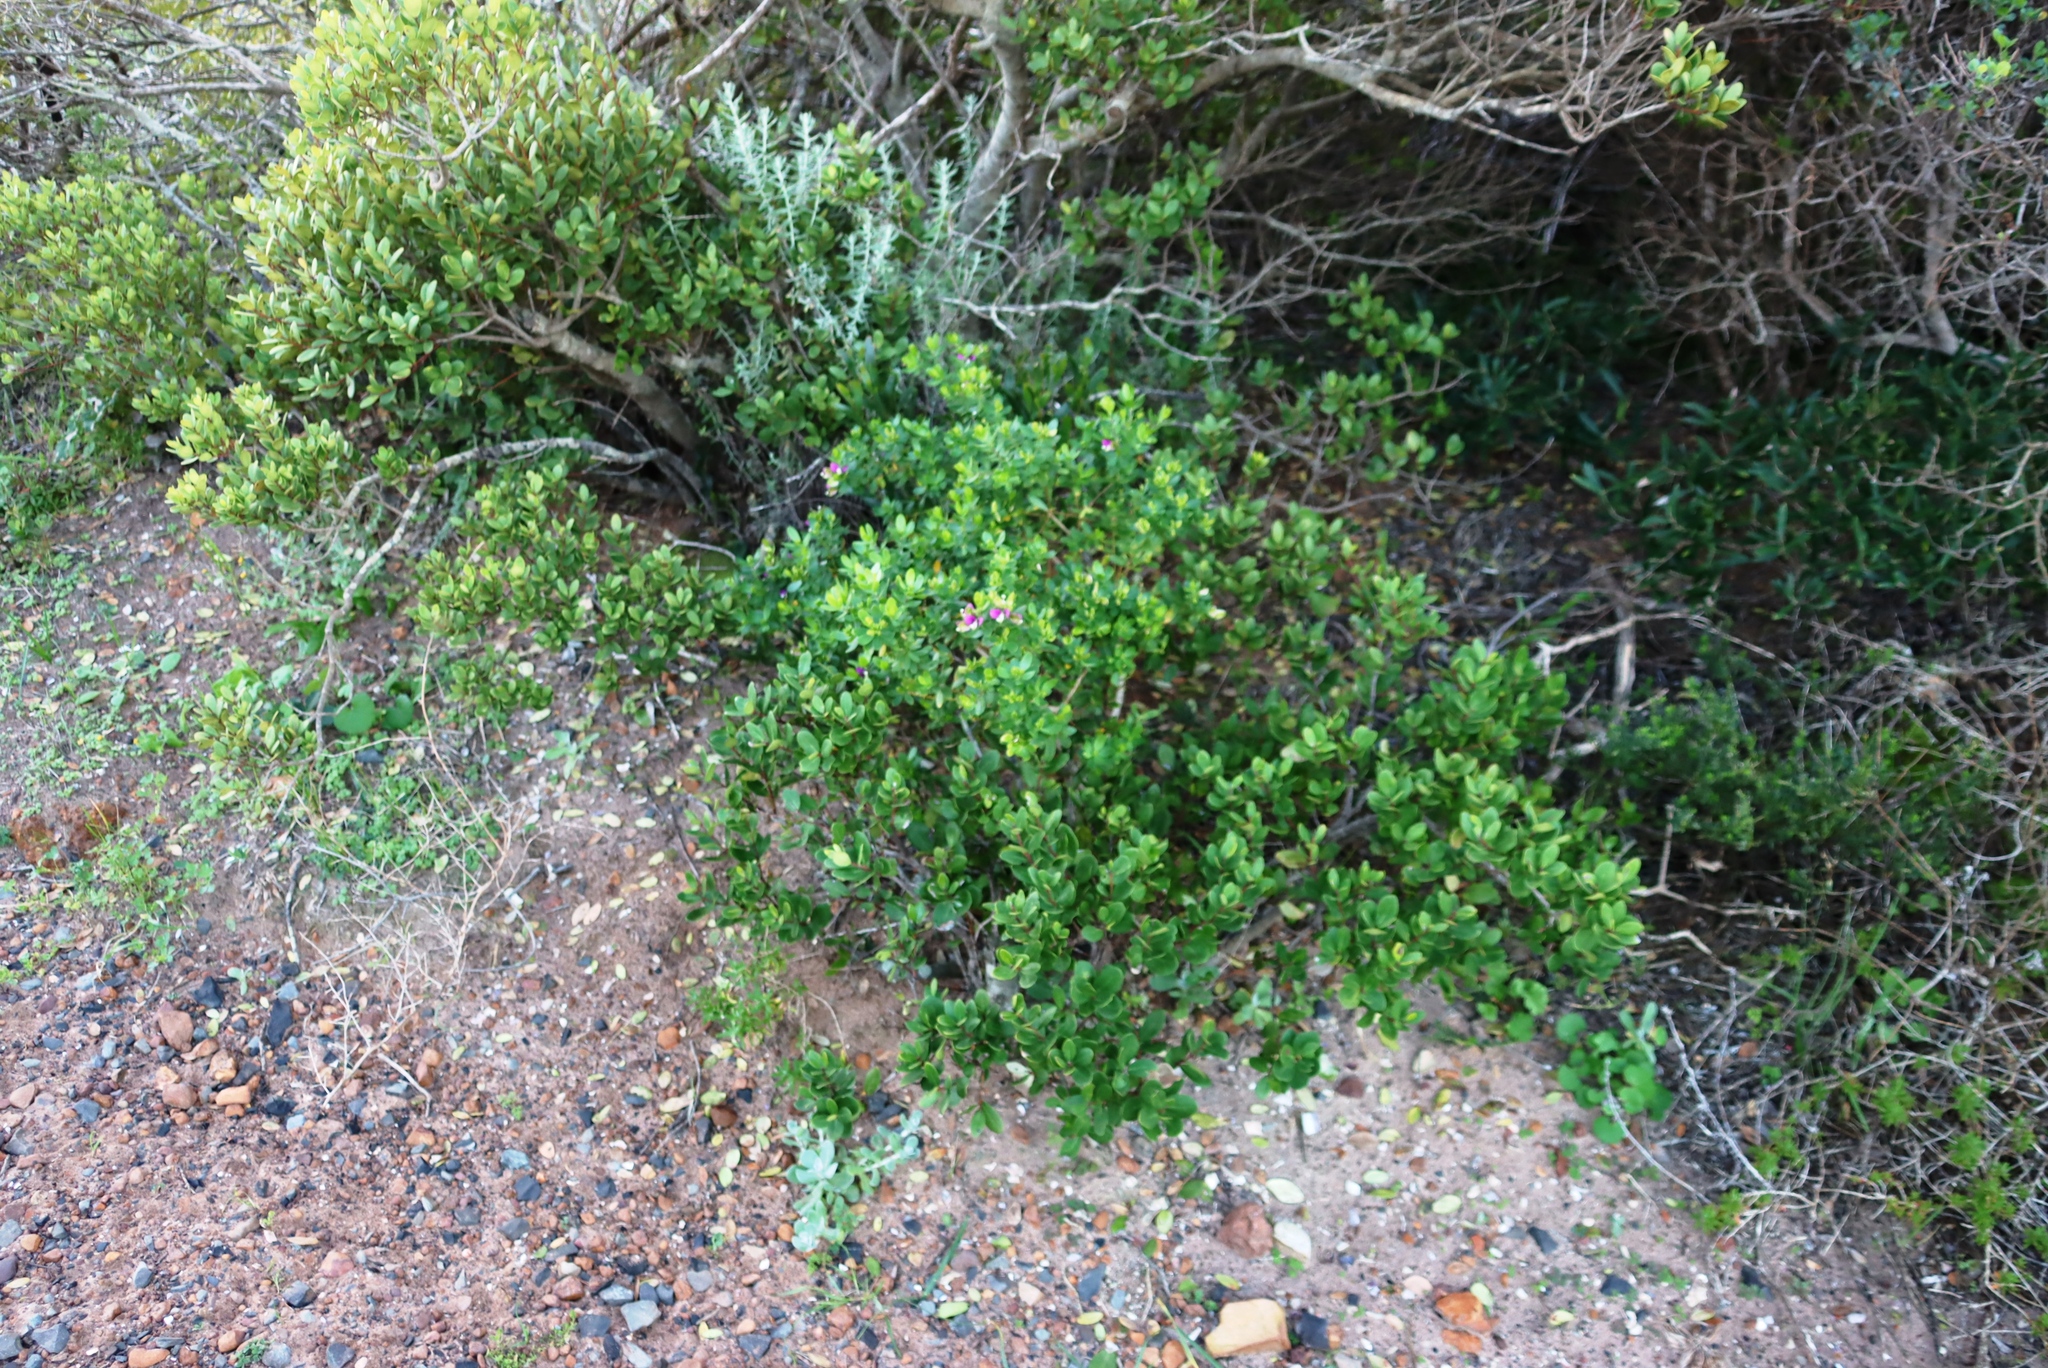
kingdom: Plantae
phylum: Tracheophyta
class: Magnoliopsida
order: Fabales
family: Polygalaceae
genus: Polygala
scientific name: Polygala myrtifolia
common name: Myrtle-leaf milkwort
